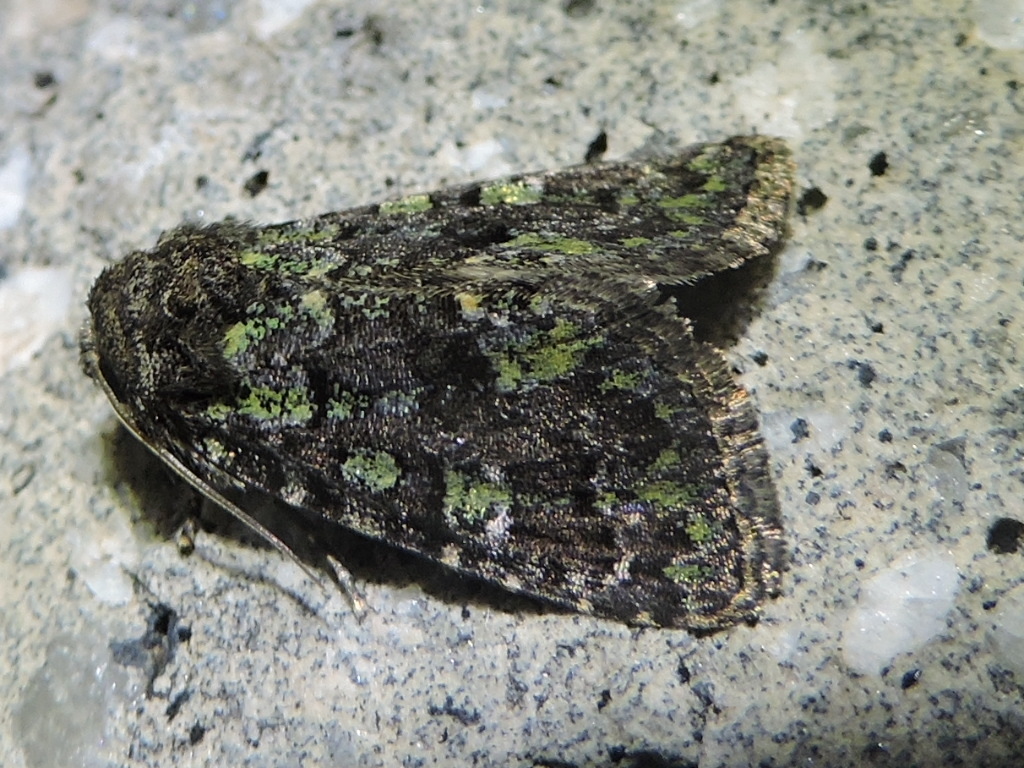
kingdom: Animalia
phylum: Arthropoda
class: Insecta
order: Lepidoptera
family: Noctuidae
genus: Paramiana
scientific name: Paramiana smaragdina
